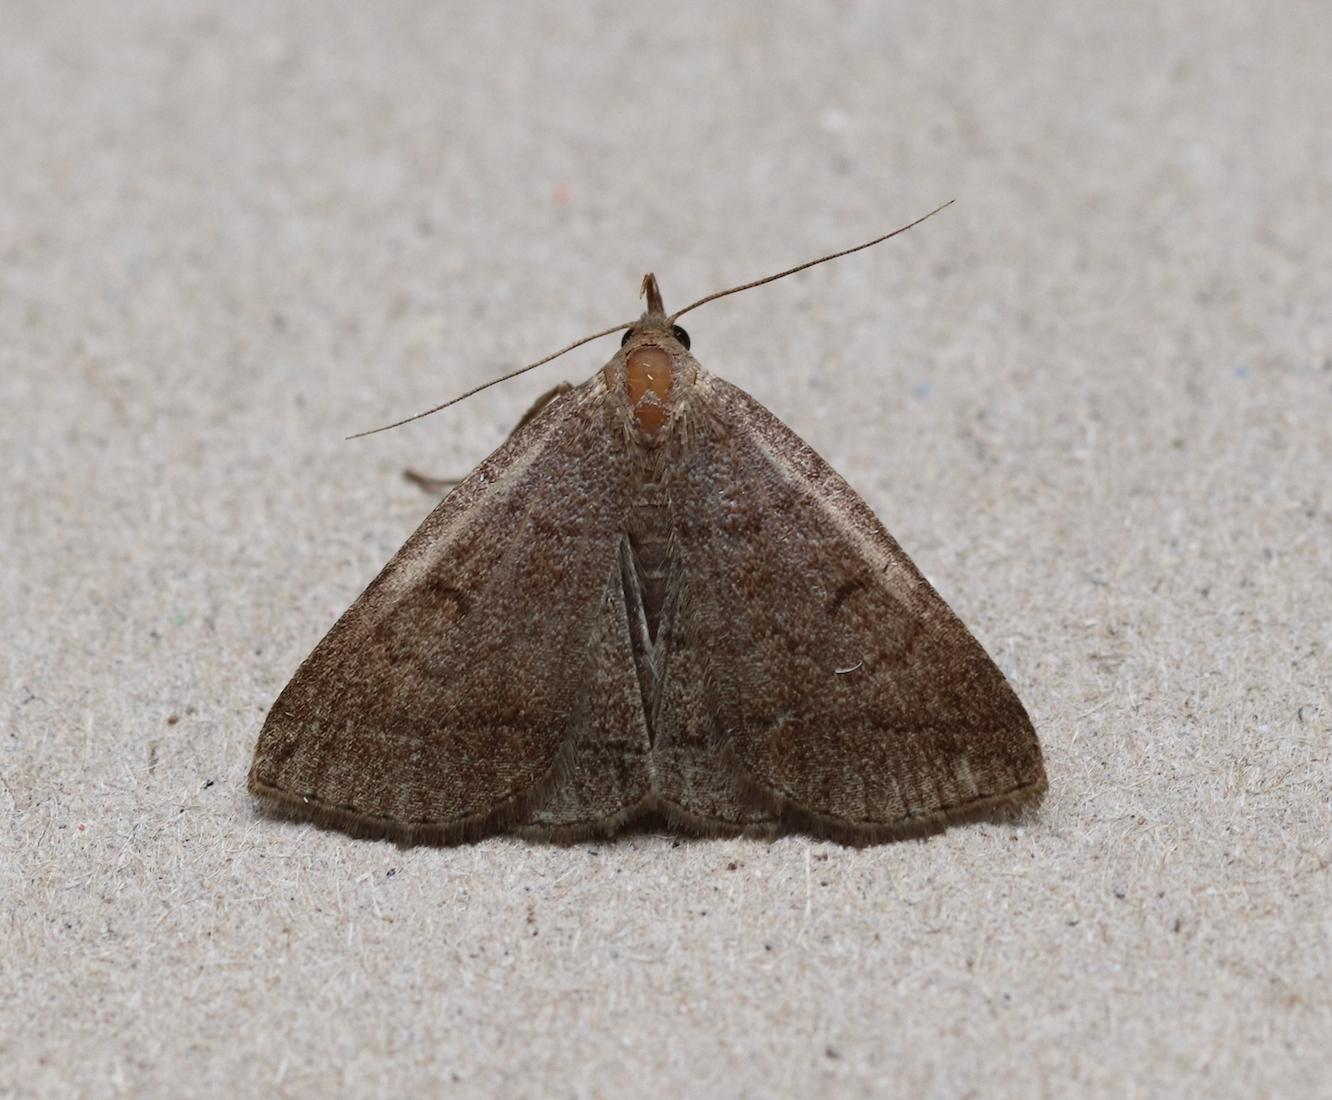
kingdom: Animalia
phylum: Arthropoda
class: Insecta
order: Lepidoptera
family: Erebidae
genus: Zanclognatha
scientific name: Zanclognatha lunalis
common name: Jubilee fan-foot
